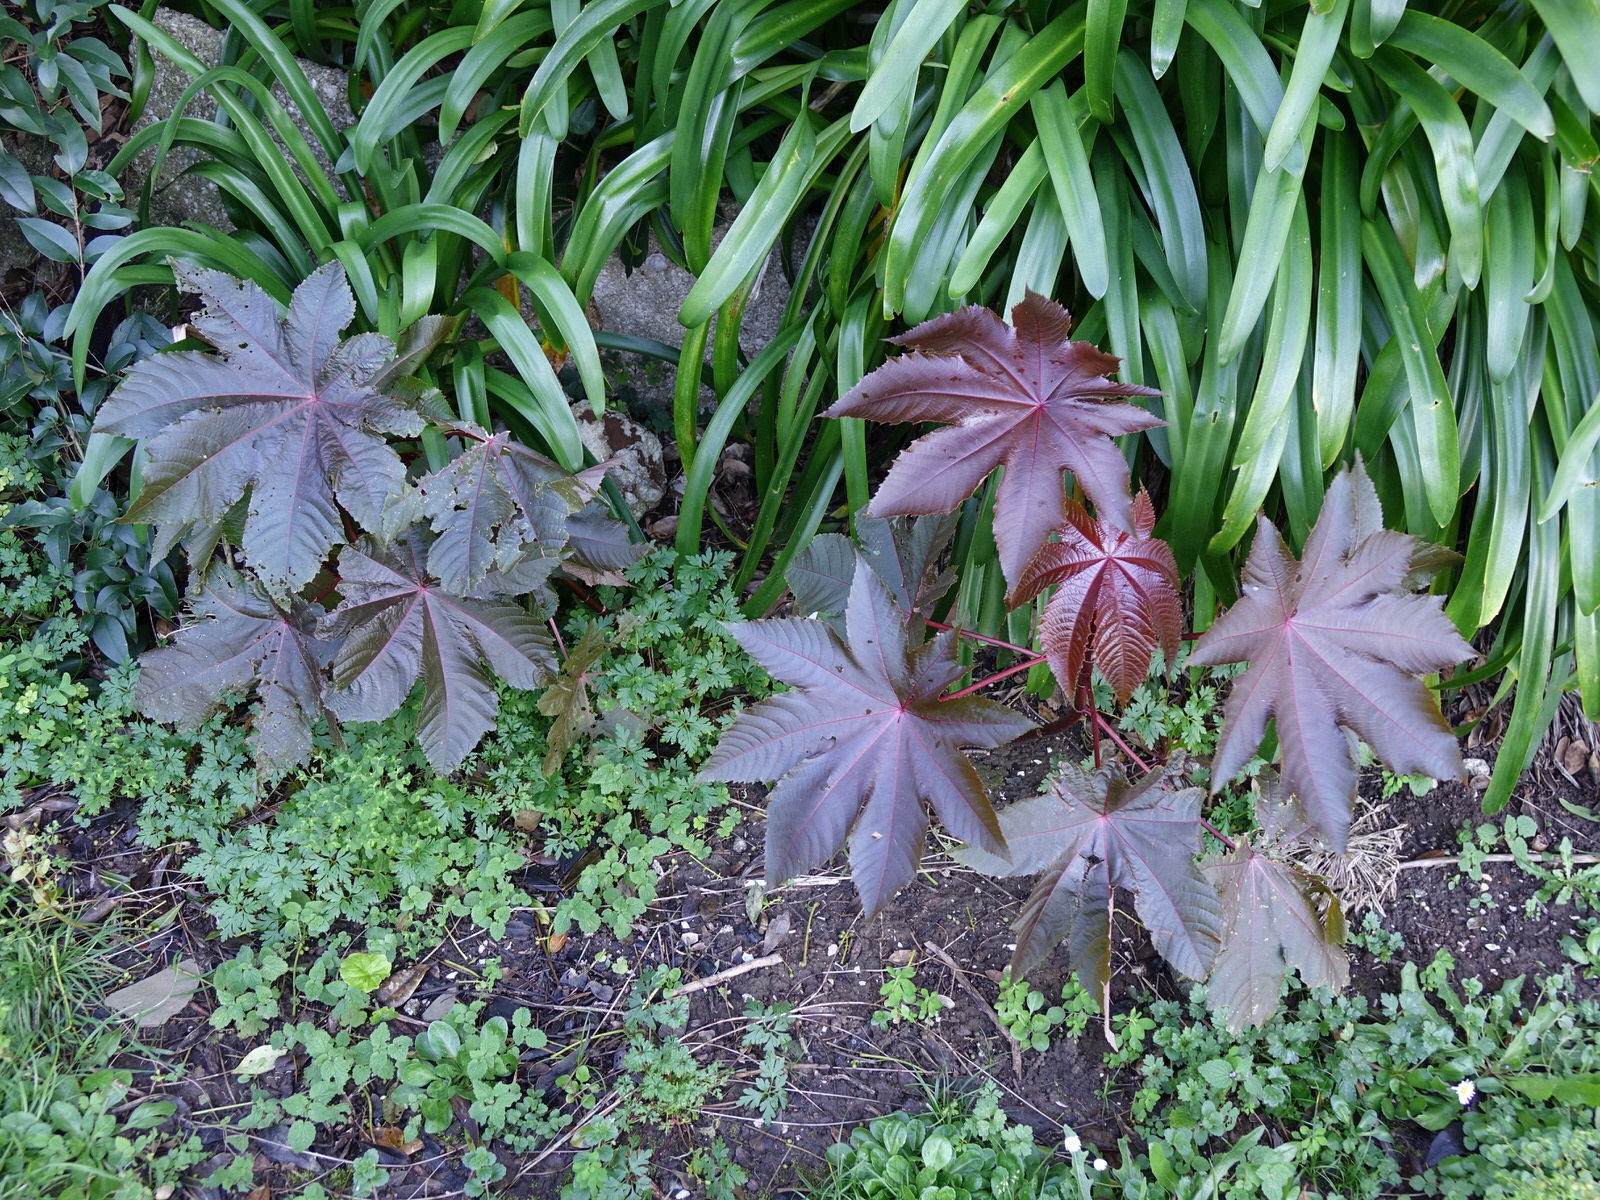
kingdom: Plantae
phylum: Tracheophyta
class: Magnoliopsida
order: Malpighiales
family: Euphorbiaceae
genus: Ricinus
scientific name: Ricinus communis
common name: Castor-oil-plant
